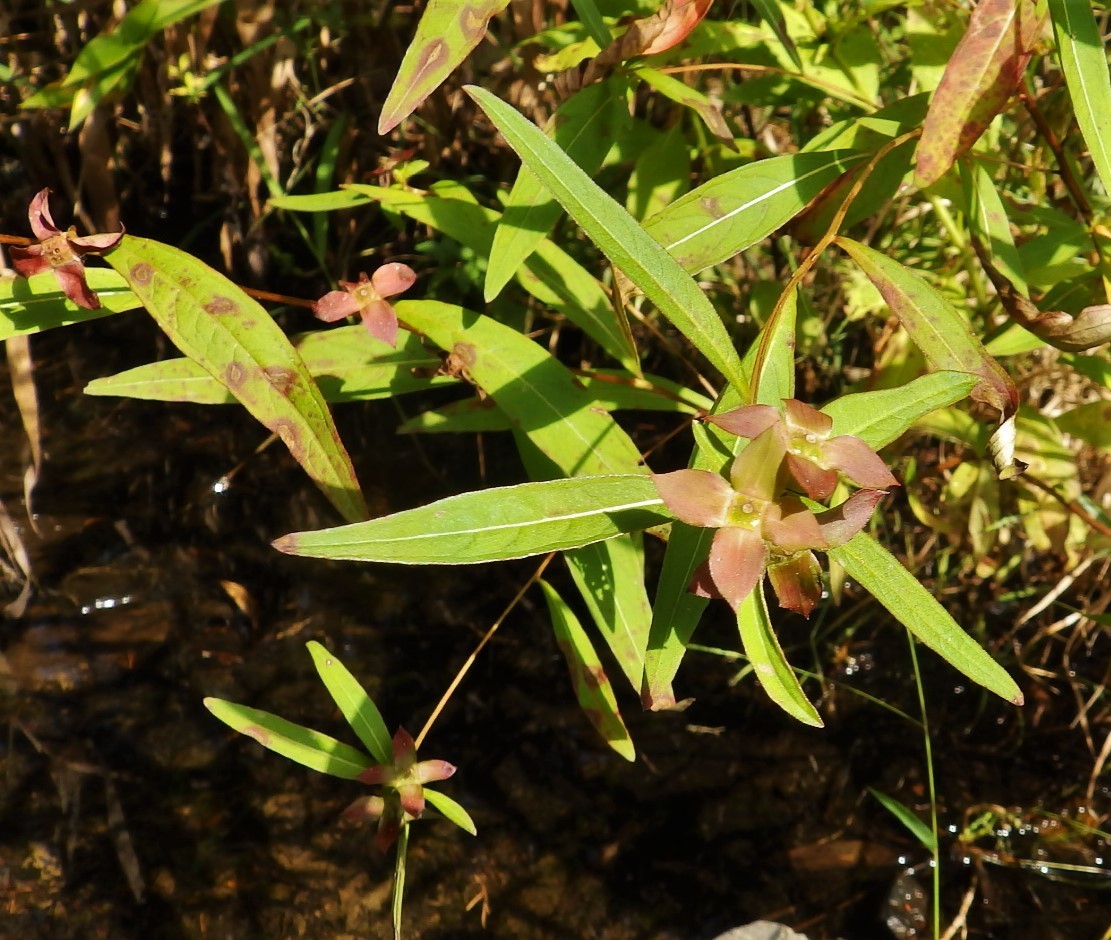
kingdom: Plantae
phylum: Tracheophyta
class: Magnoliopsida
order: Myrtales
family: Onagraceae
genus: Ludwigia
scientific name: Ludwigia alternifolia
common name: Rattlebox
